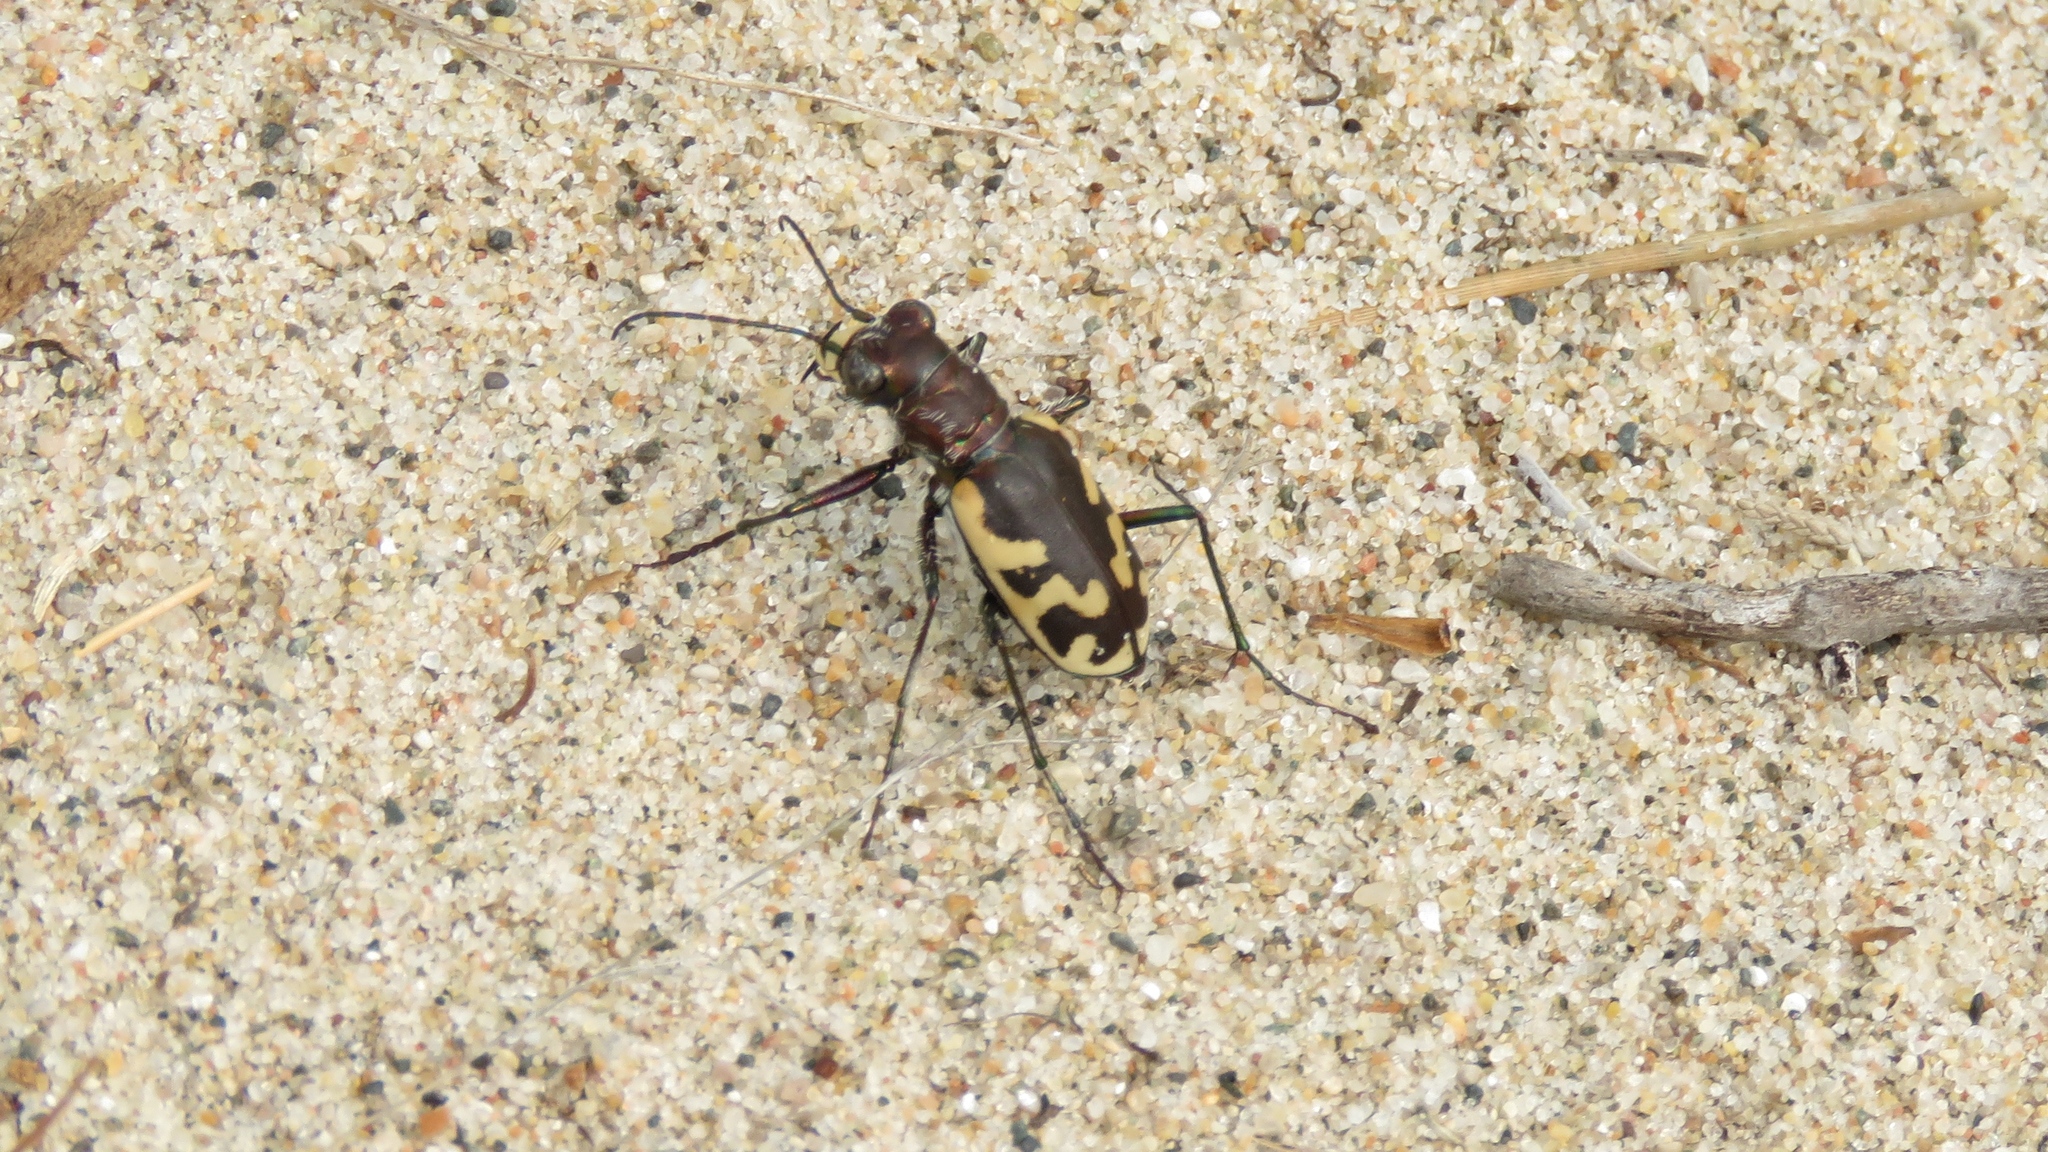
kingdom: Animalia
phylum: Arthropoda
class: Insecta
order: Coleoptera
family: Carabidae
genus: Cicindela
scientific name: Cicindela formosa
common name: Big sand tiger beetle
